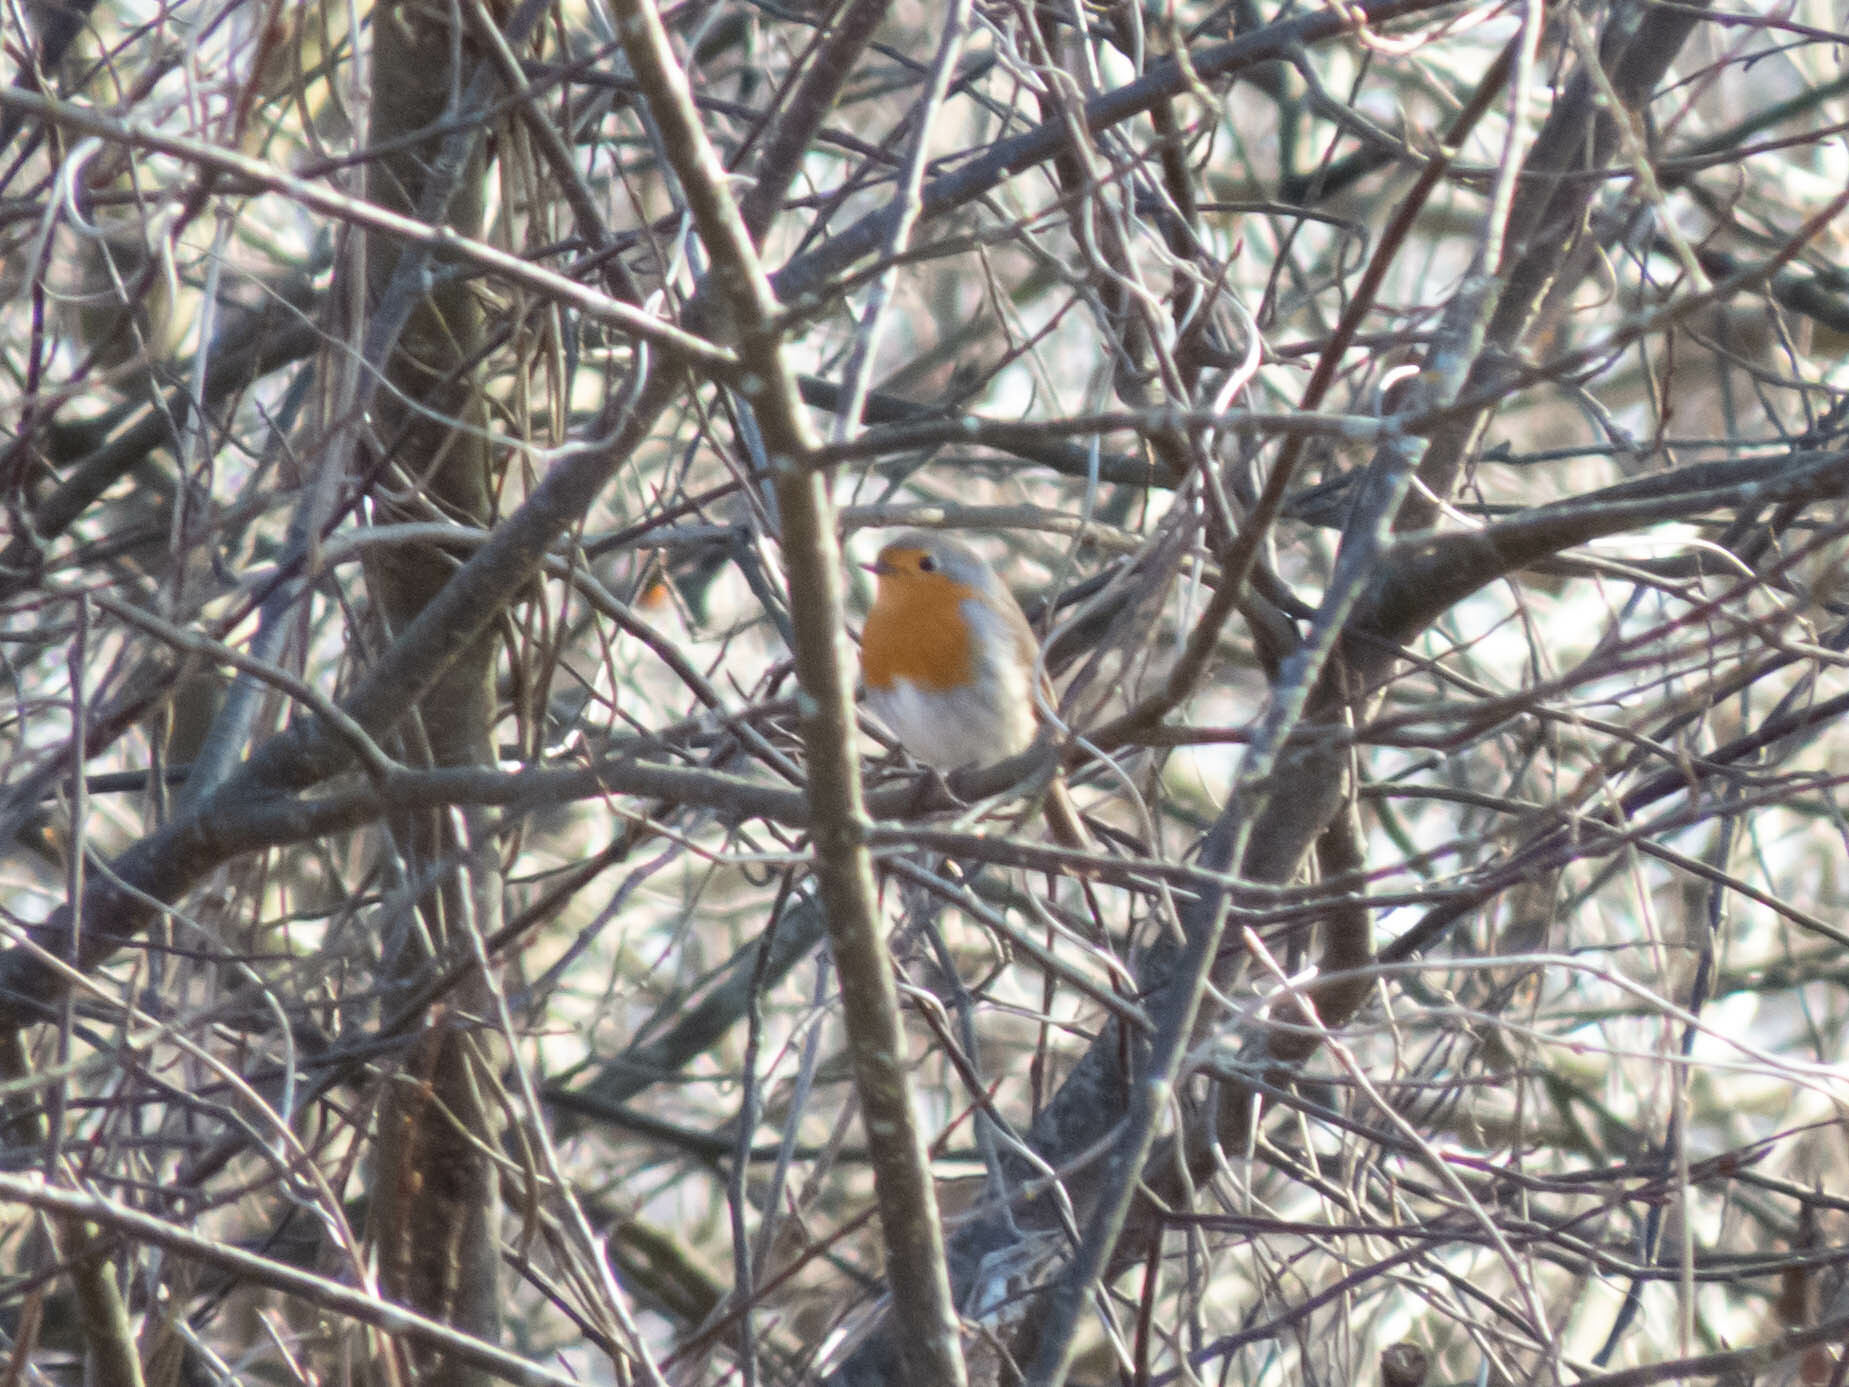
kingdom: Animalia
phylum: Chordata
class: Aves
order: Passeriformes
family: Muscicapidae
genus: Erithacus
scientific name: Erithacus rubecula
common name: European robin
